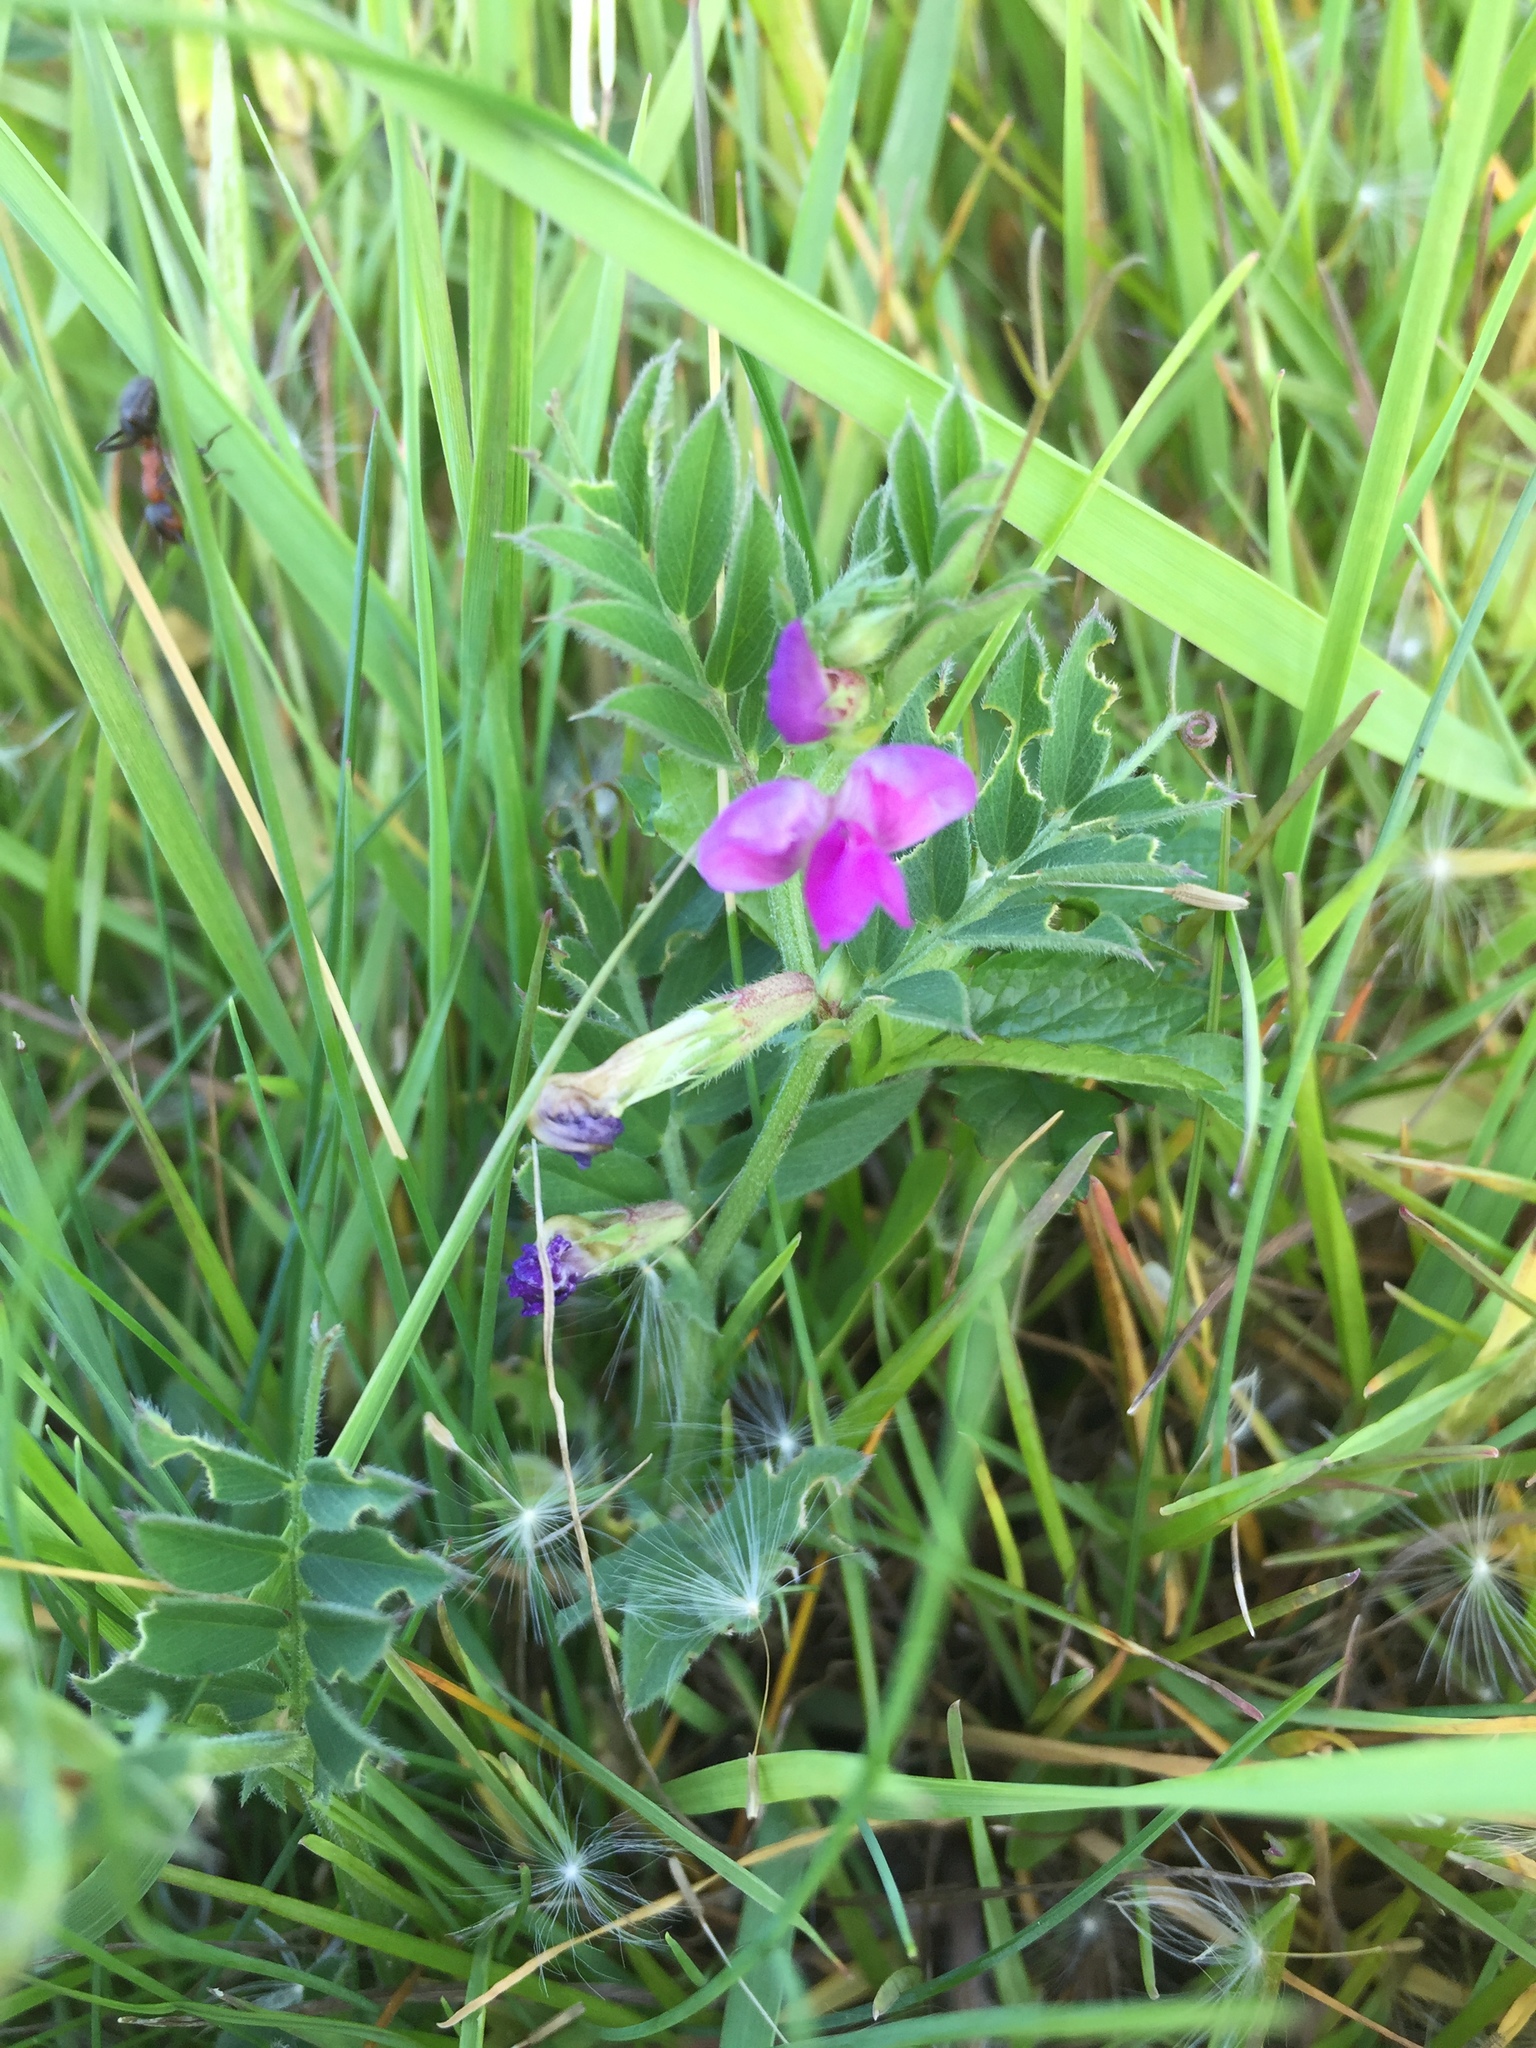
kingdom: Plantae
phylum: Tracheophyta
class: Magnoliopsida
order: Fabales
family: Fabaceae
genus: Vicia
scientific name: Vicia sativa
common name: Garden vetch
